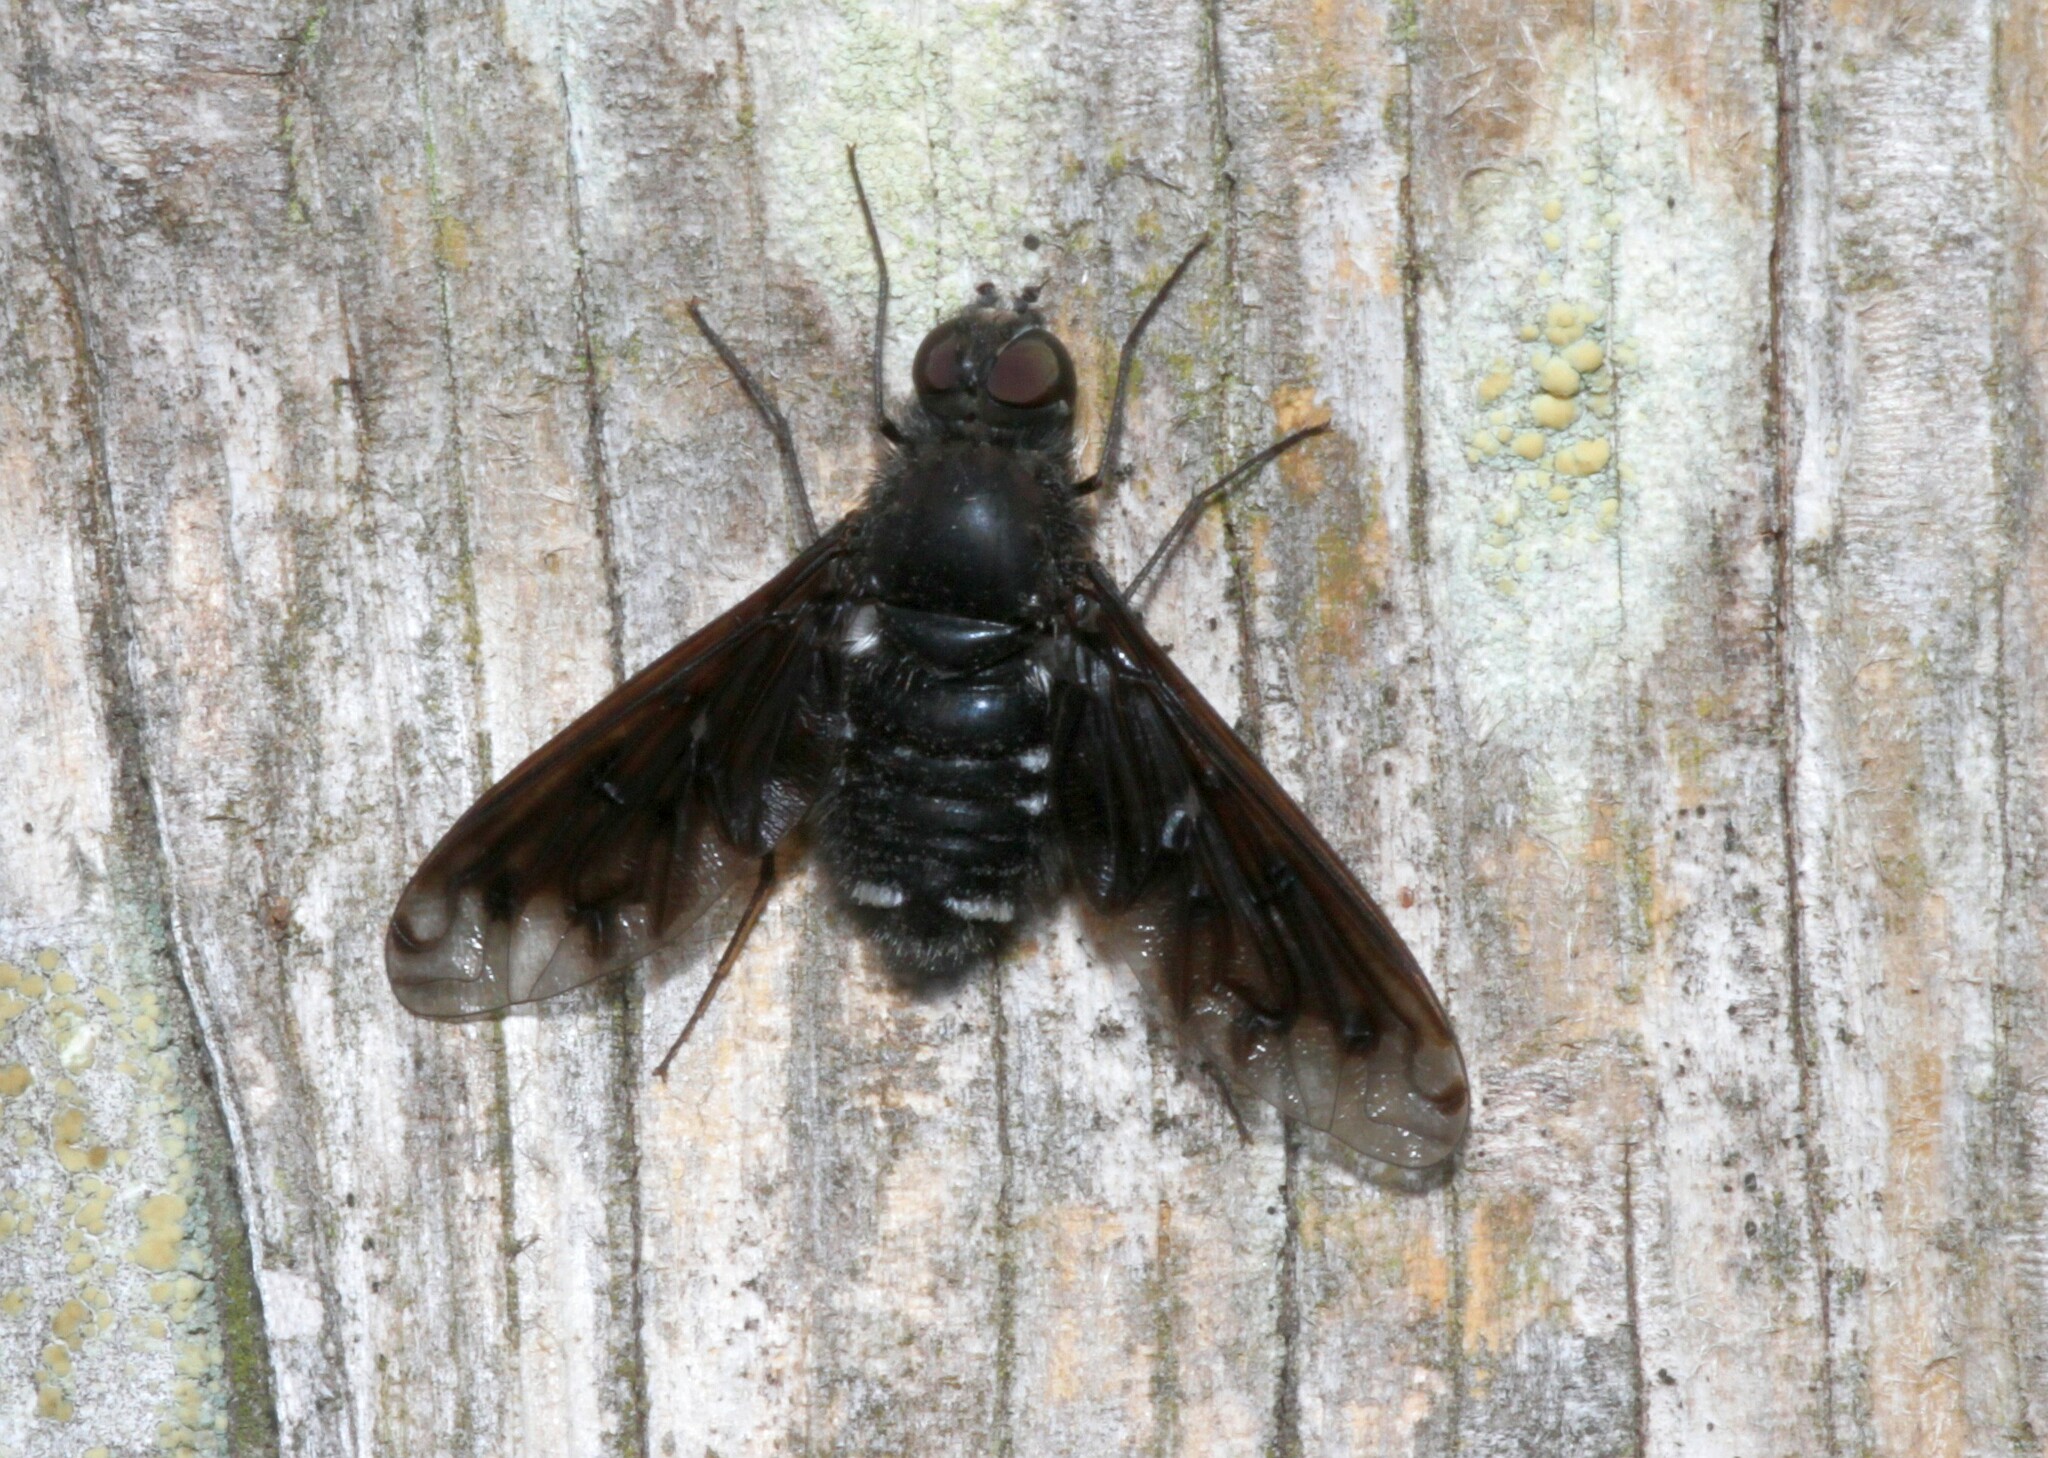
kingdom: Animalia
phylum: Arthropoda
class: Insecta
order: Diptera
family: Bombyliidae
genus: Anthrax
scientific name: Anthrax anthrax
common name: Anthracite bee-fly
